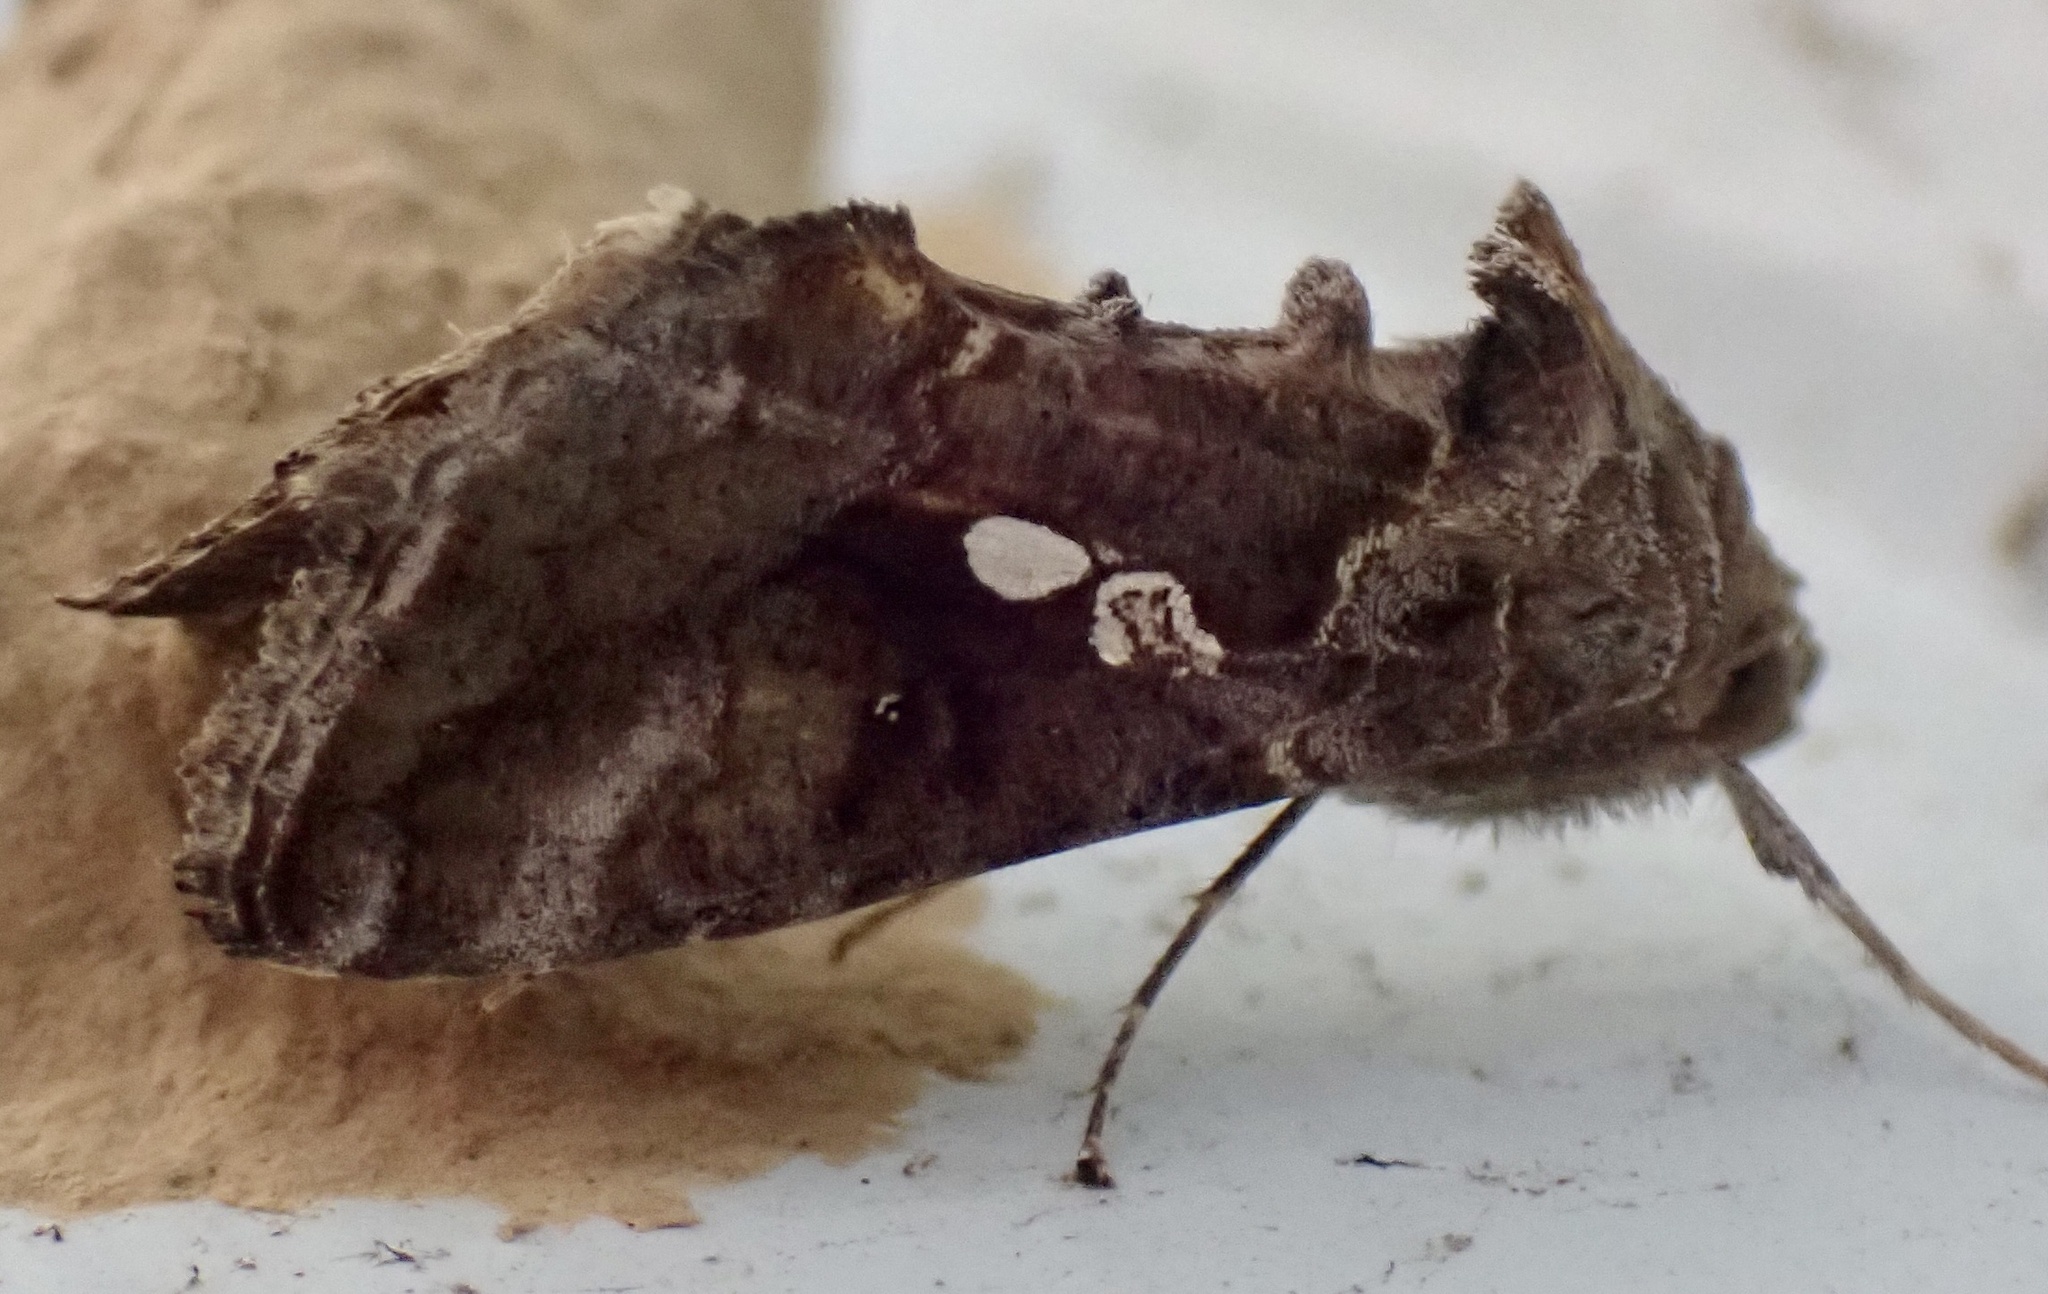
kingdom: Animalia
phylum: Arthropoda
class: Insecta
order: Lepidoptera
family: Noctuidae
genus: Chrysodeixis
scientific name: Chrysodeixis includens
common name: Cutworm moth
